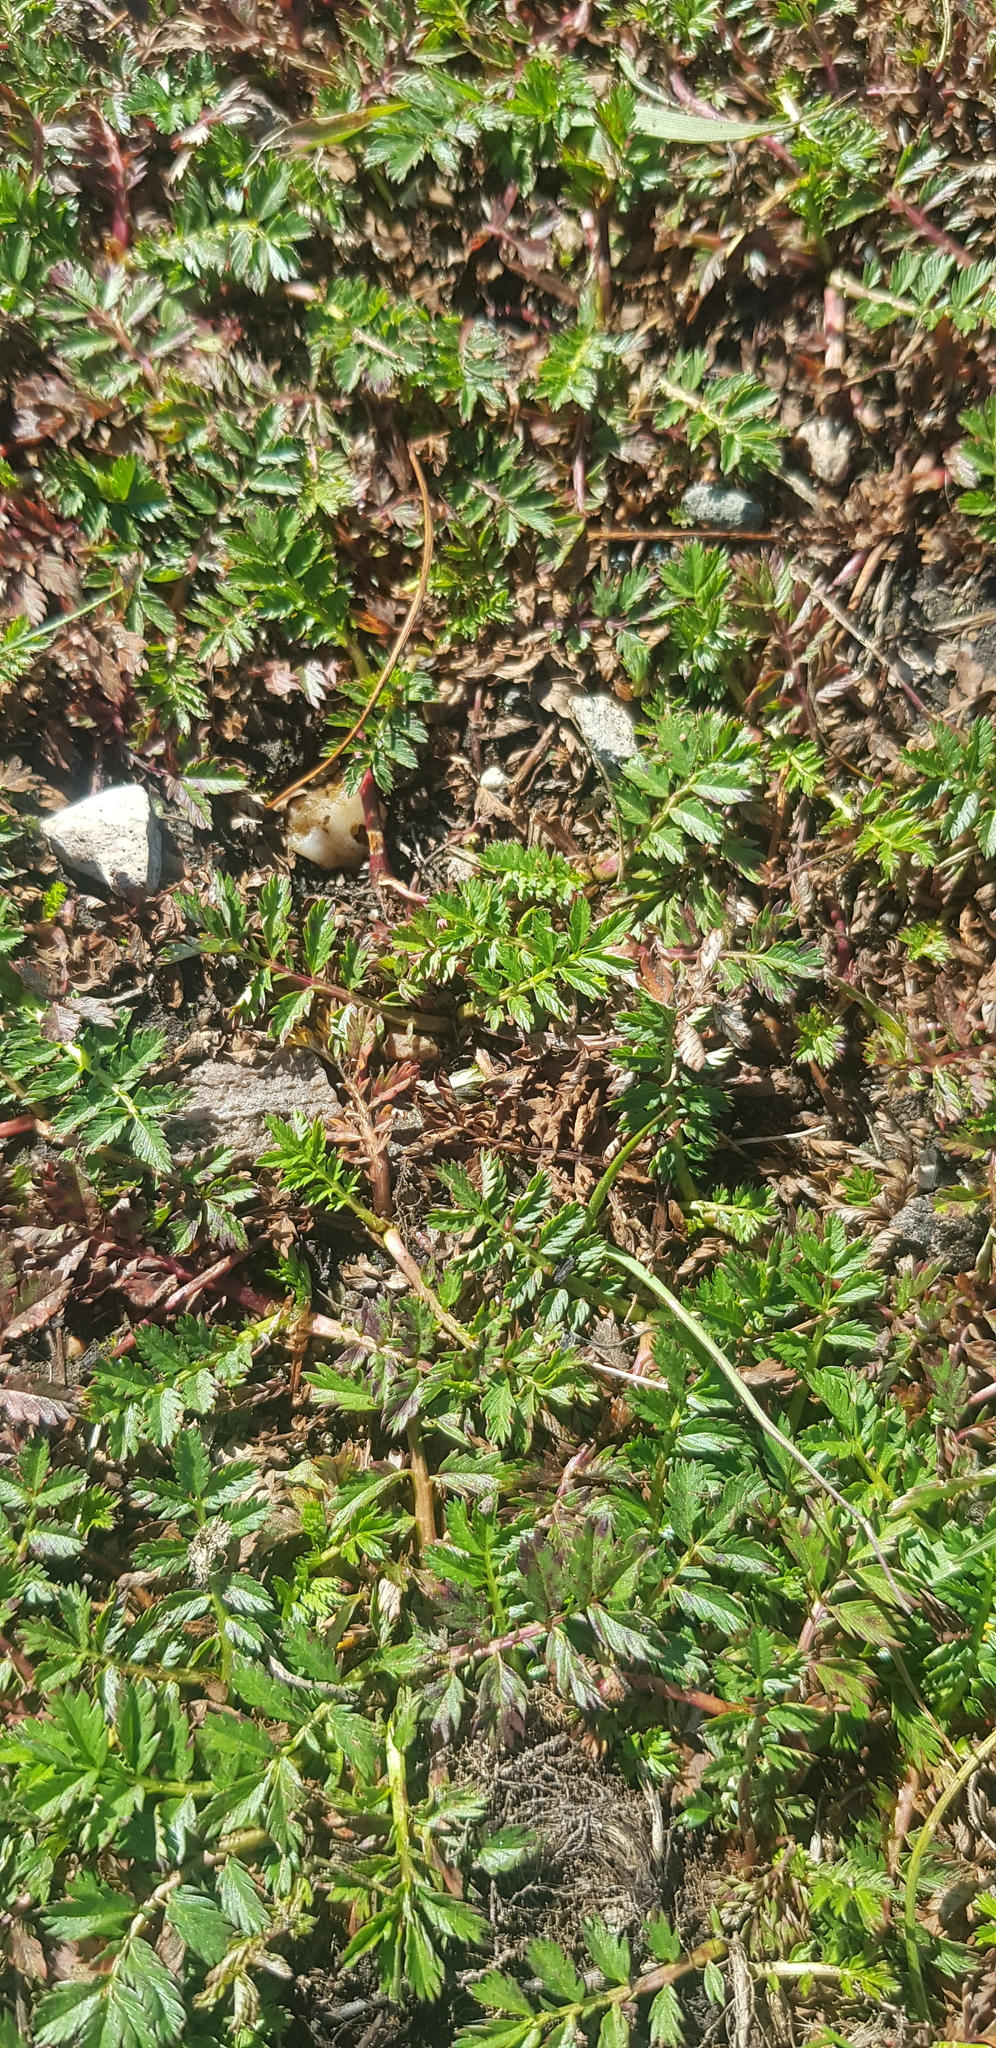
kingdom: Plantae
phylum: Tracheophyta
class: Magnoliopsida
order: Rosales
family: Rosaceae
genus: Argentina
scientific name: Argentina anserina
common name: Common silverweed
